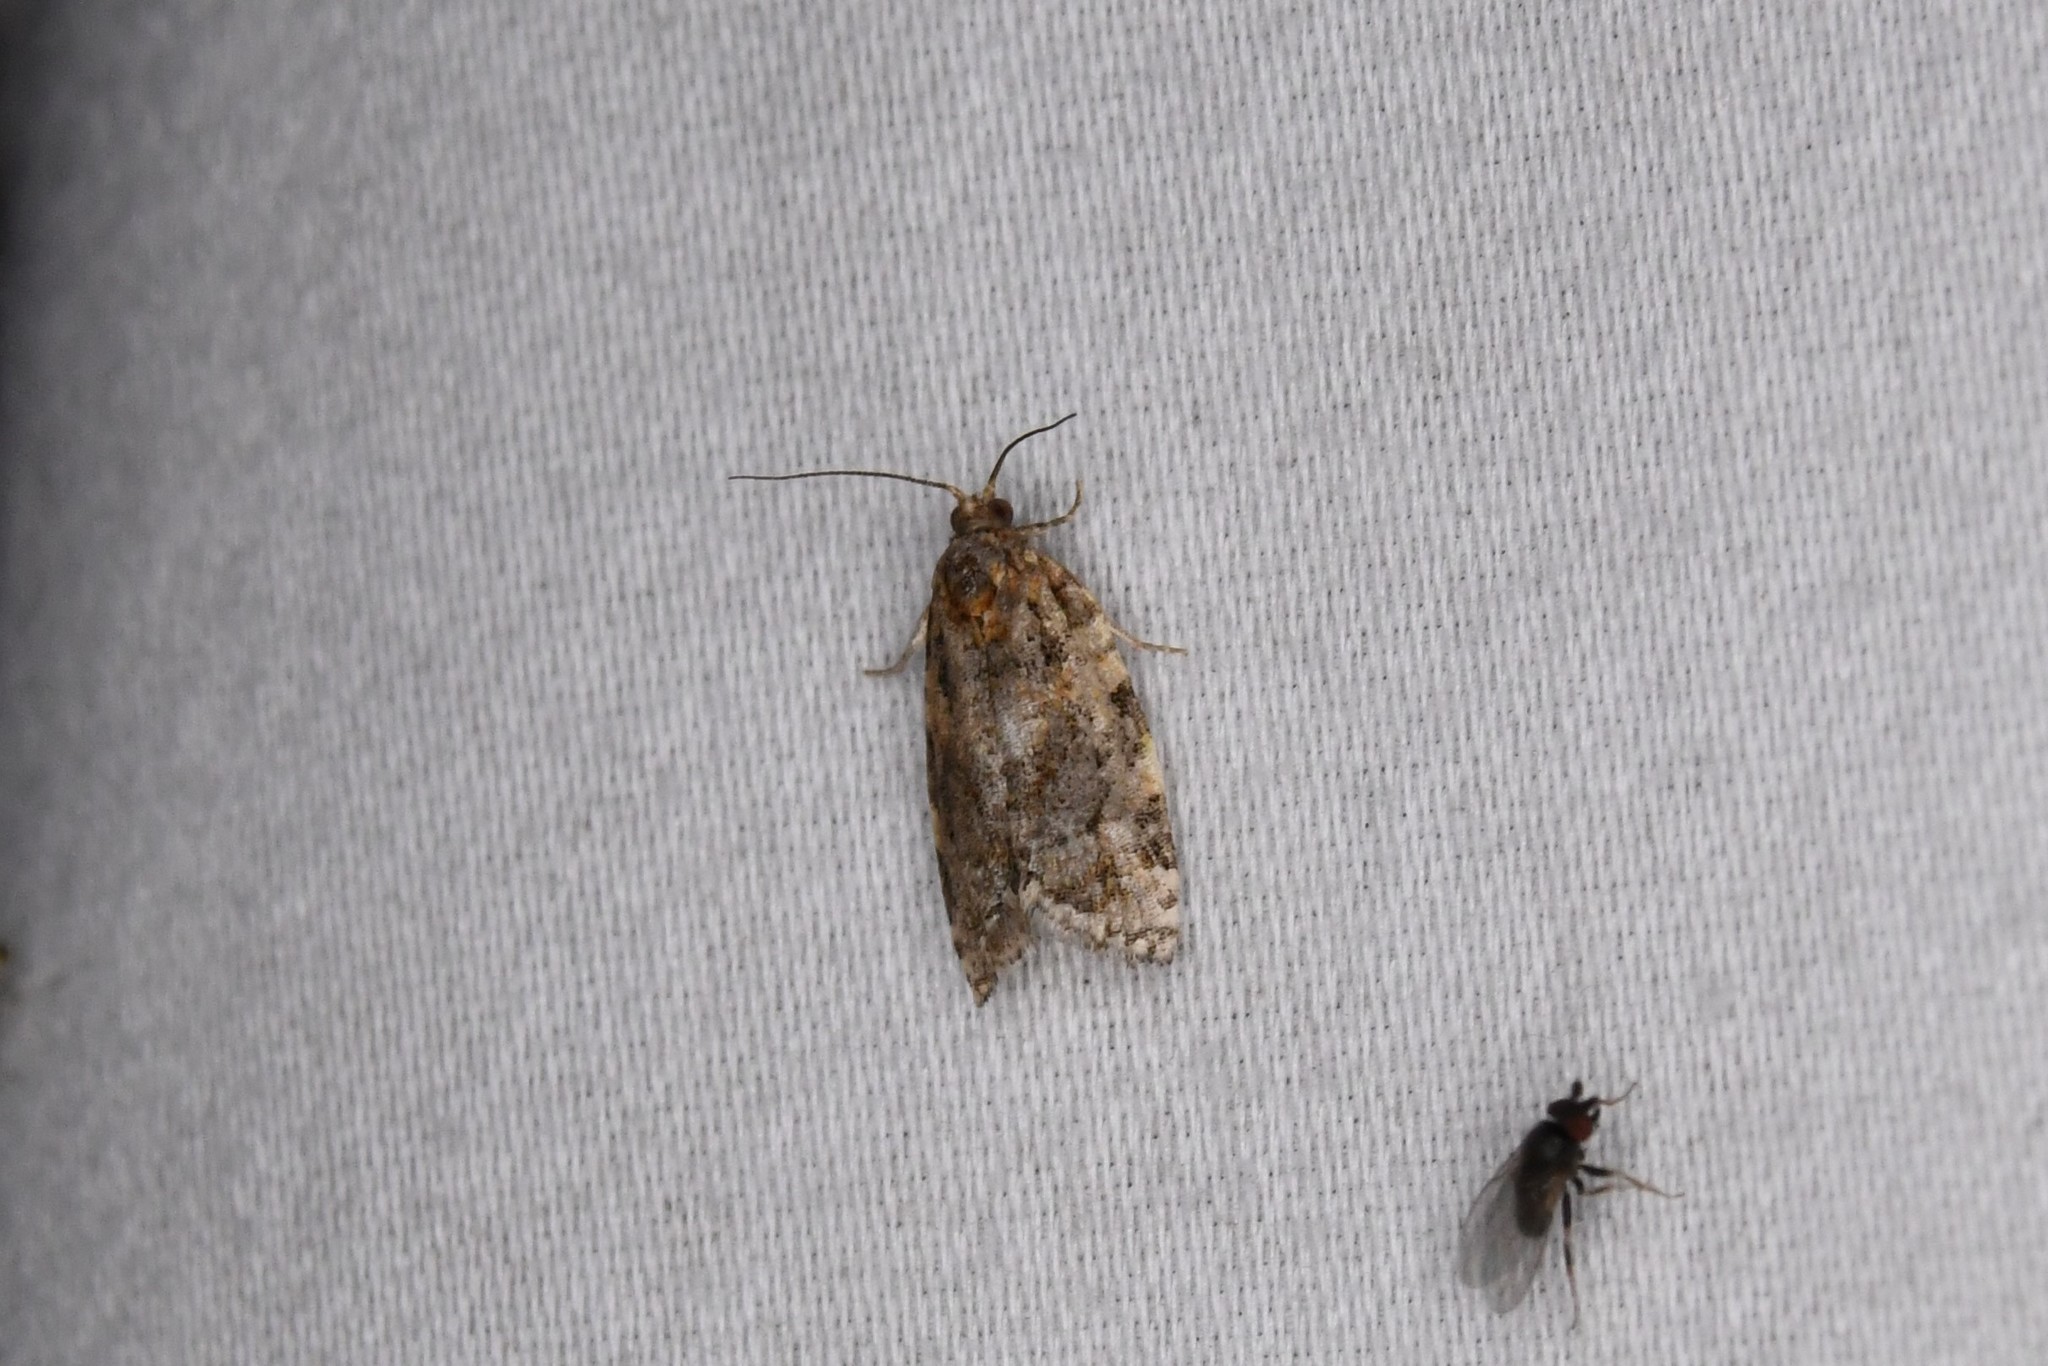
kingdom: Animalia
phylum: Arthropoda
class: Insecta
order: Lepidoptera
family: Tortricidae
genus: Argyrotaenia
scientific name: Argyrotaenia velutinana
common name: Red-banded leafroller moth
